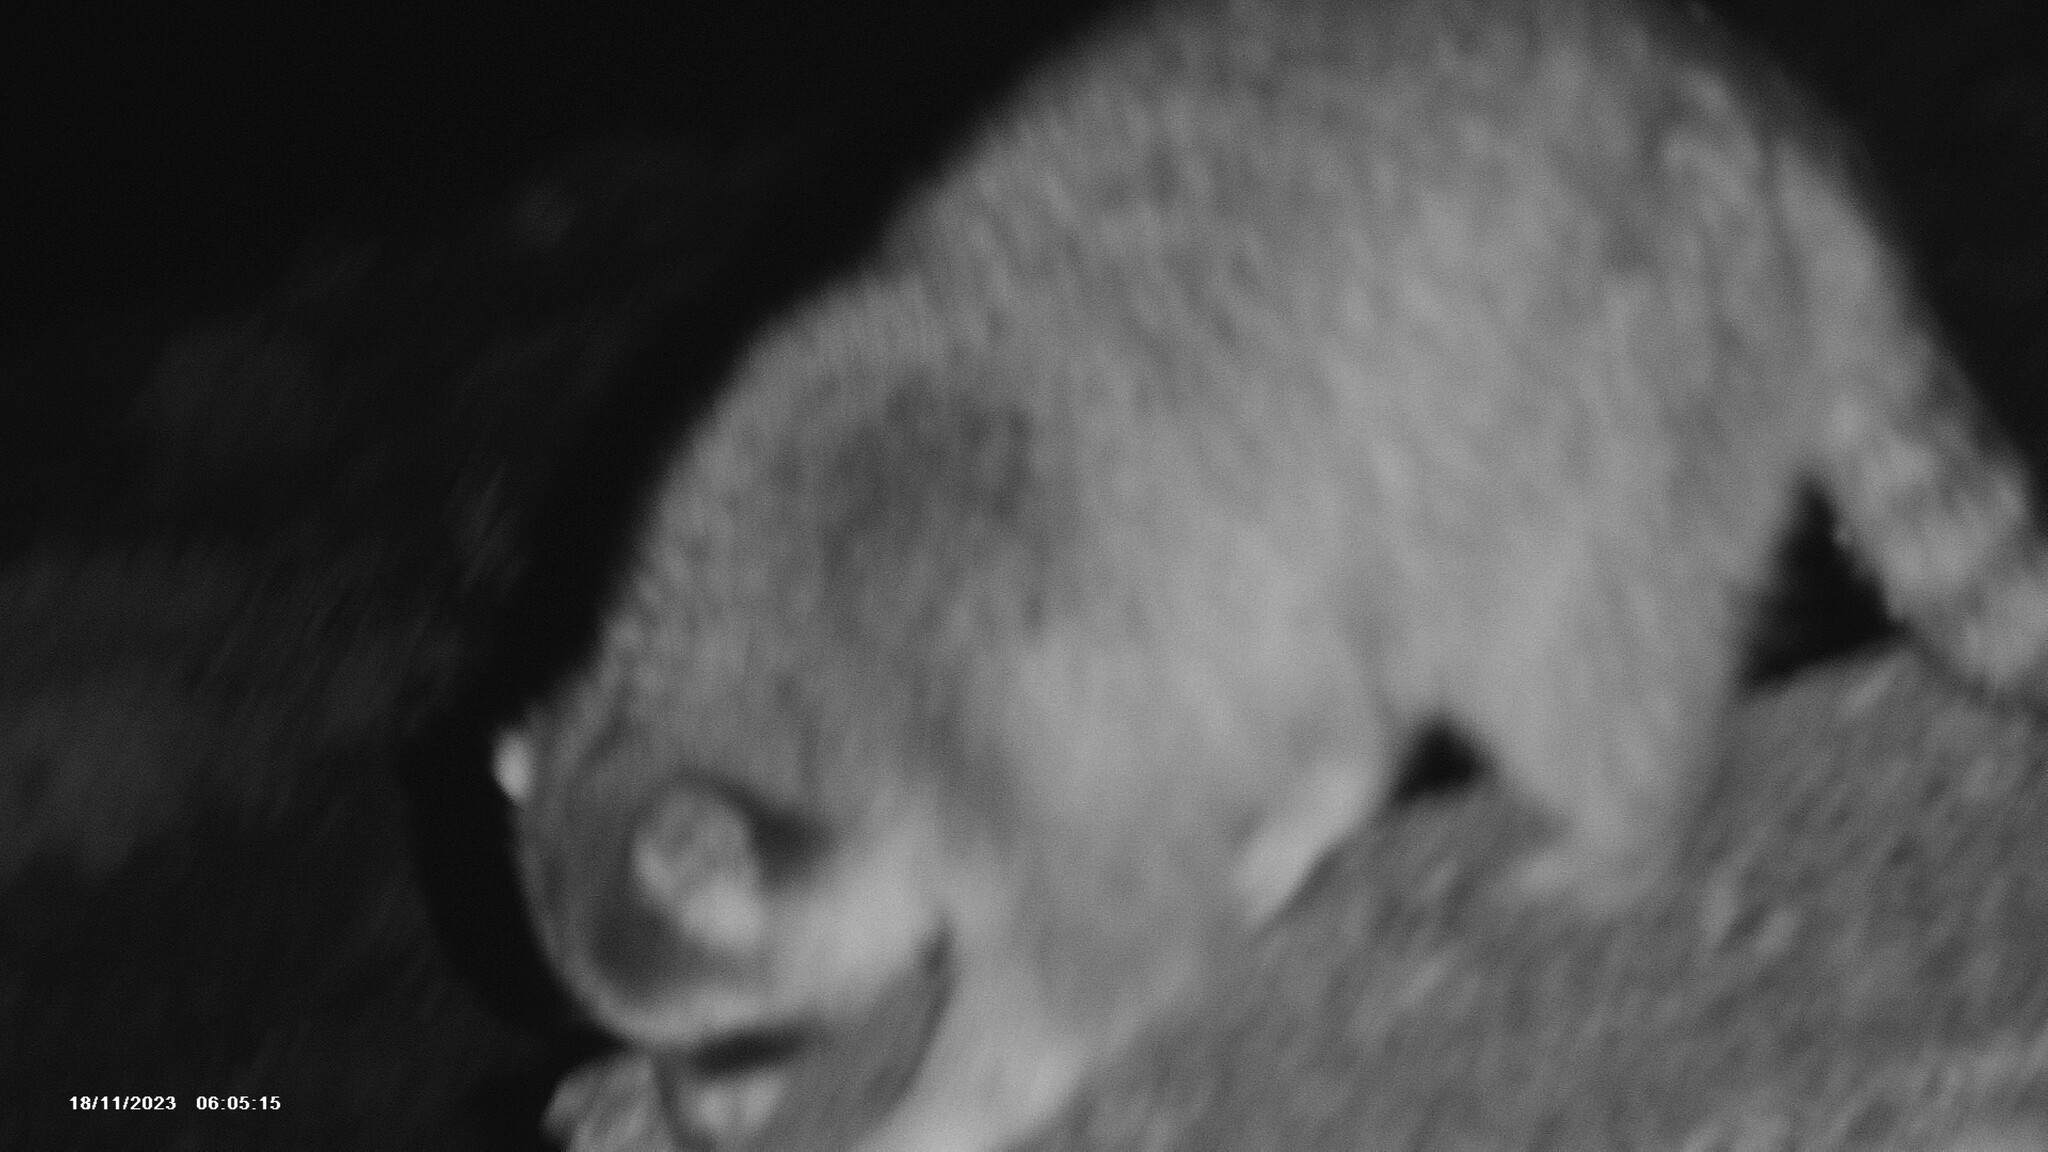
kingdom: Animalia
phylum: Chordata
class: Mammalia
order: Carnivora
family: Procyonidae
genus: Procyon
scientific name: Procyon lotor
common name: Raccoon
